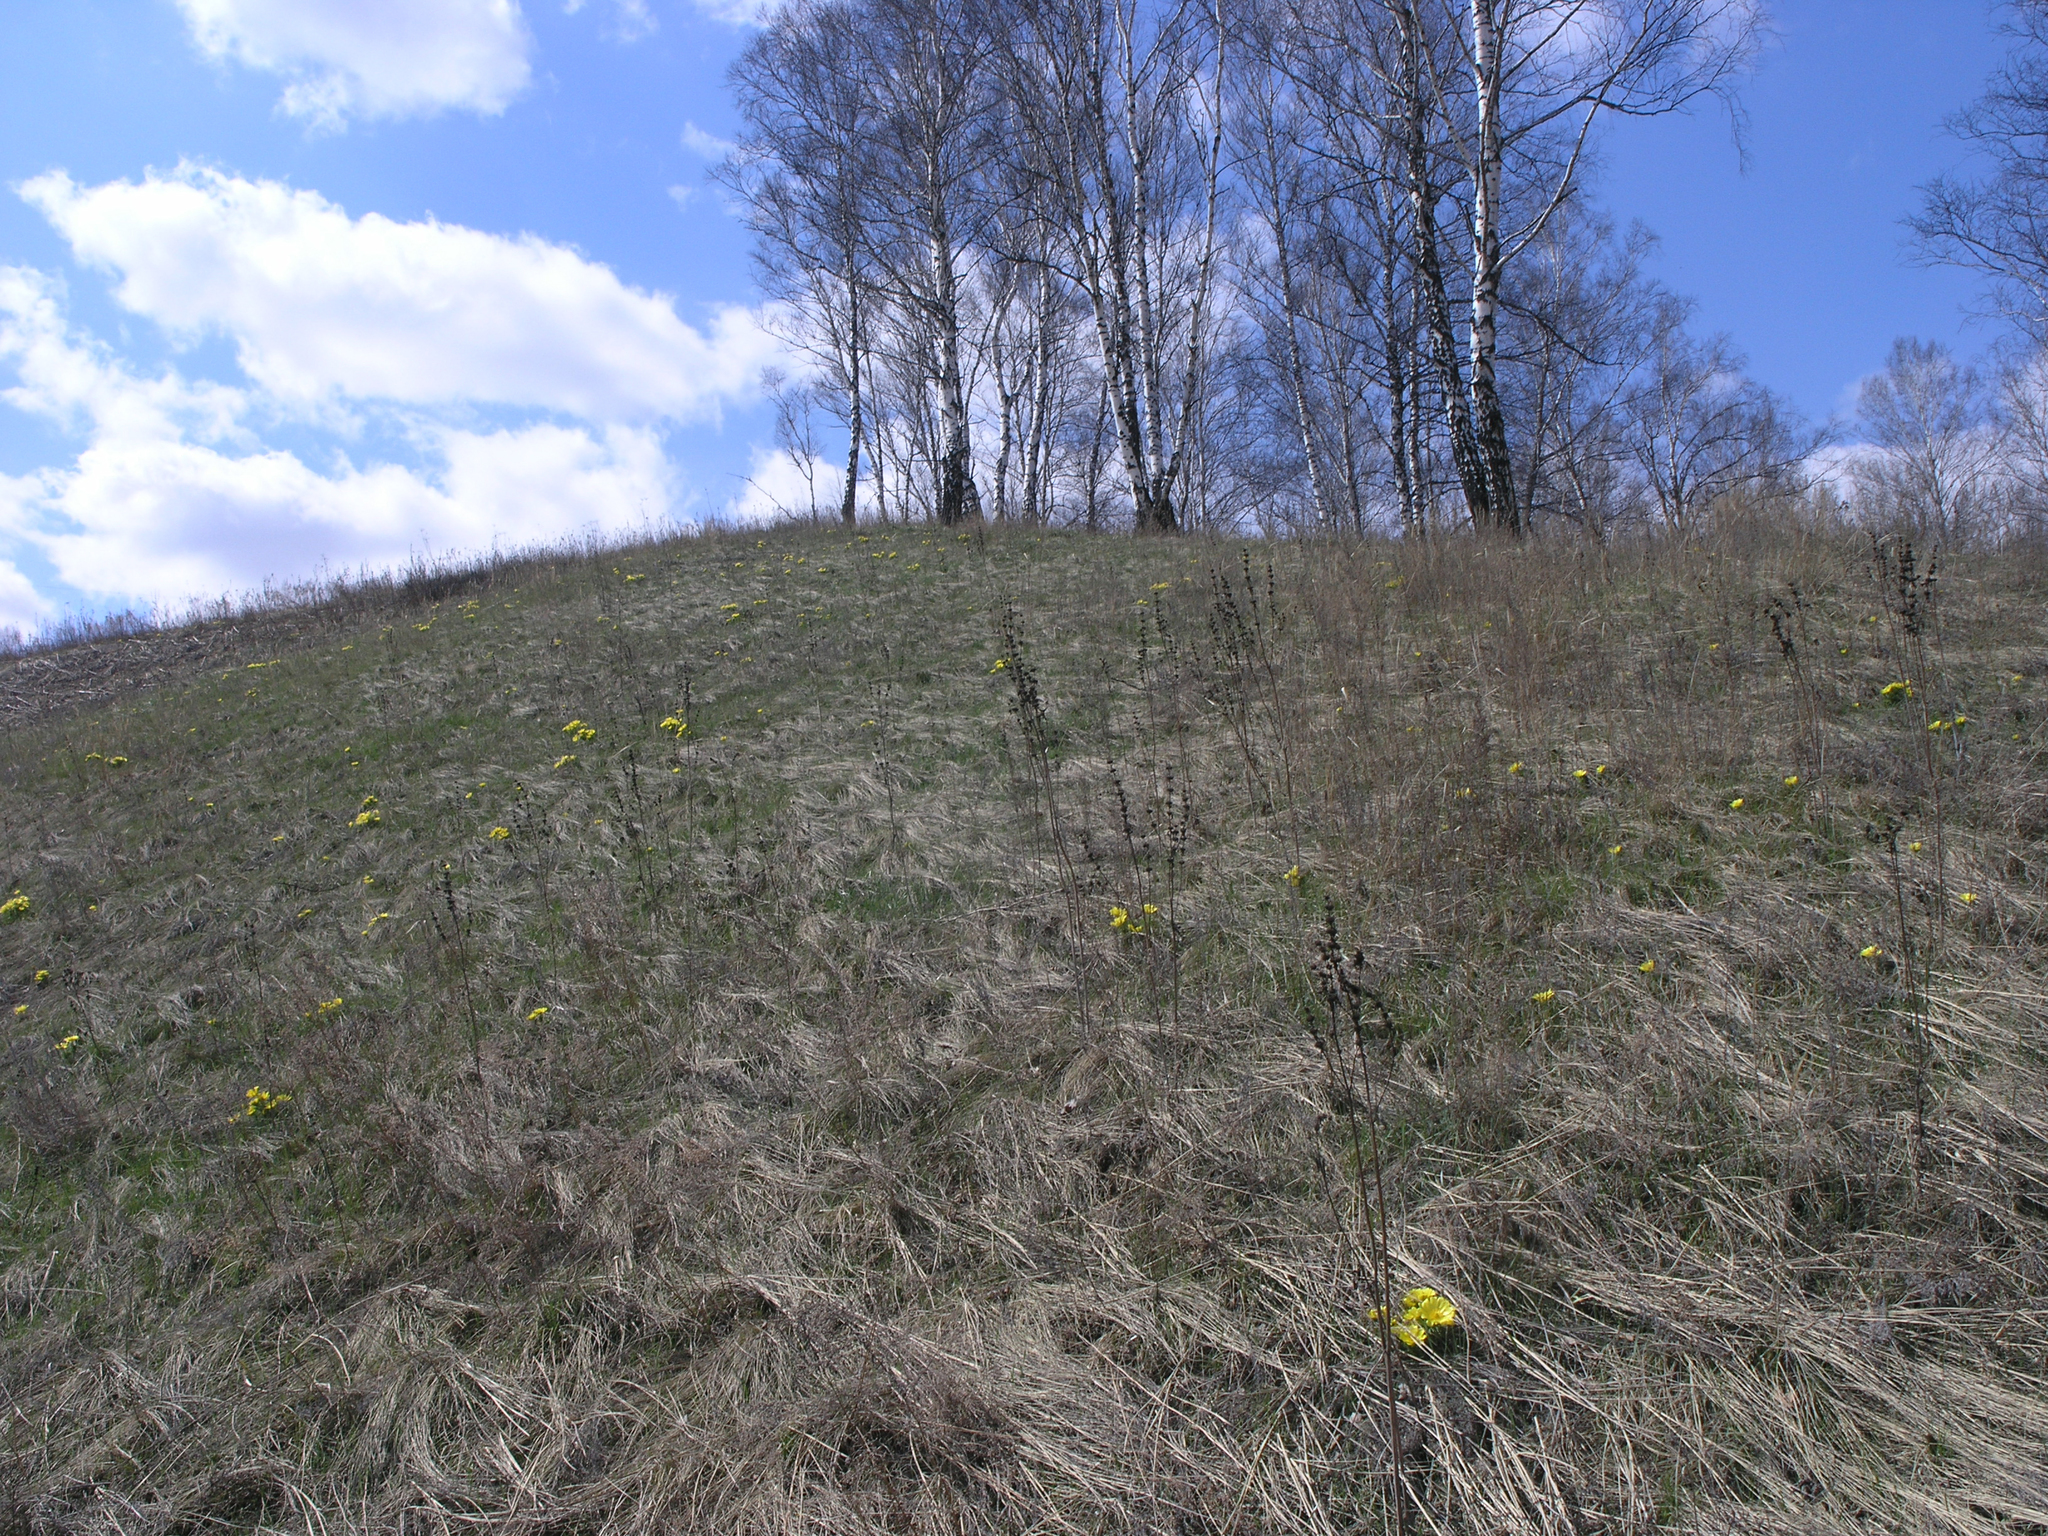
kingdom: Plantae
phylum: Tracheophyta
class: Magnoliopsida
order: Ranunculales
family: Ranunculaceae
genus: Adonis
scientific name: Adonis vernalis
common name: Yellow pheasants-eye
